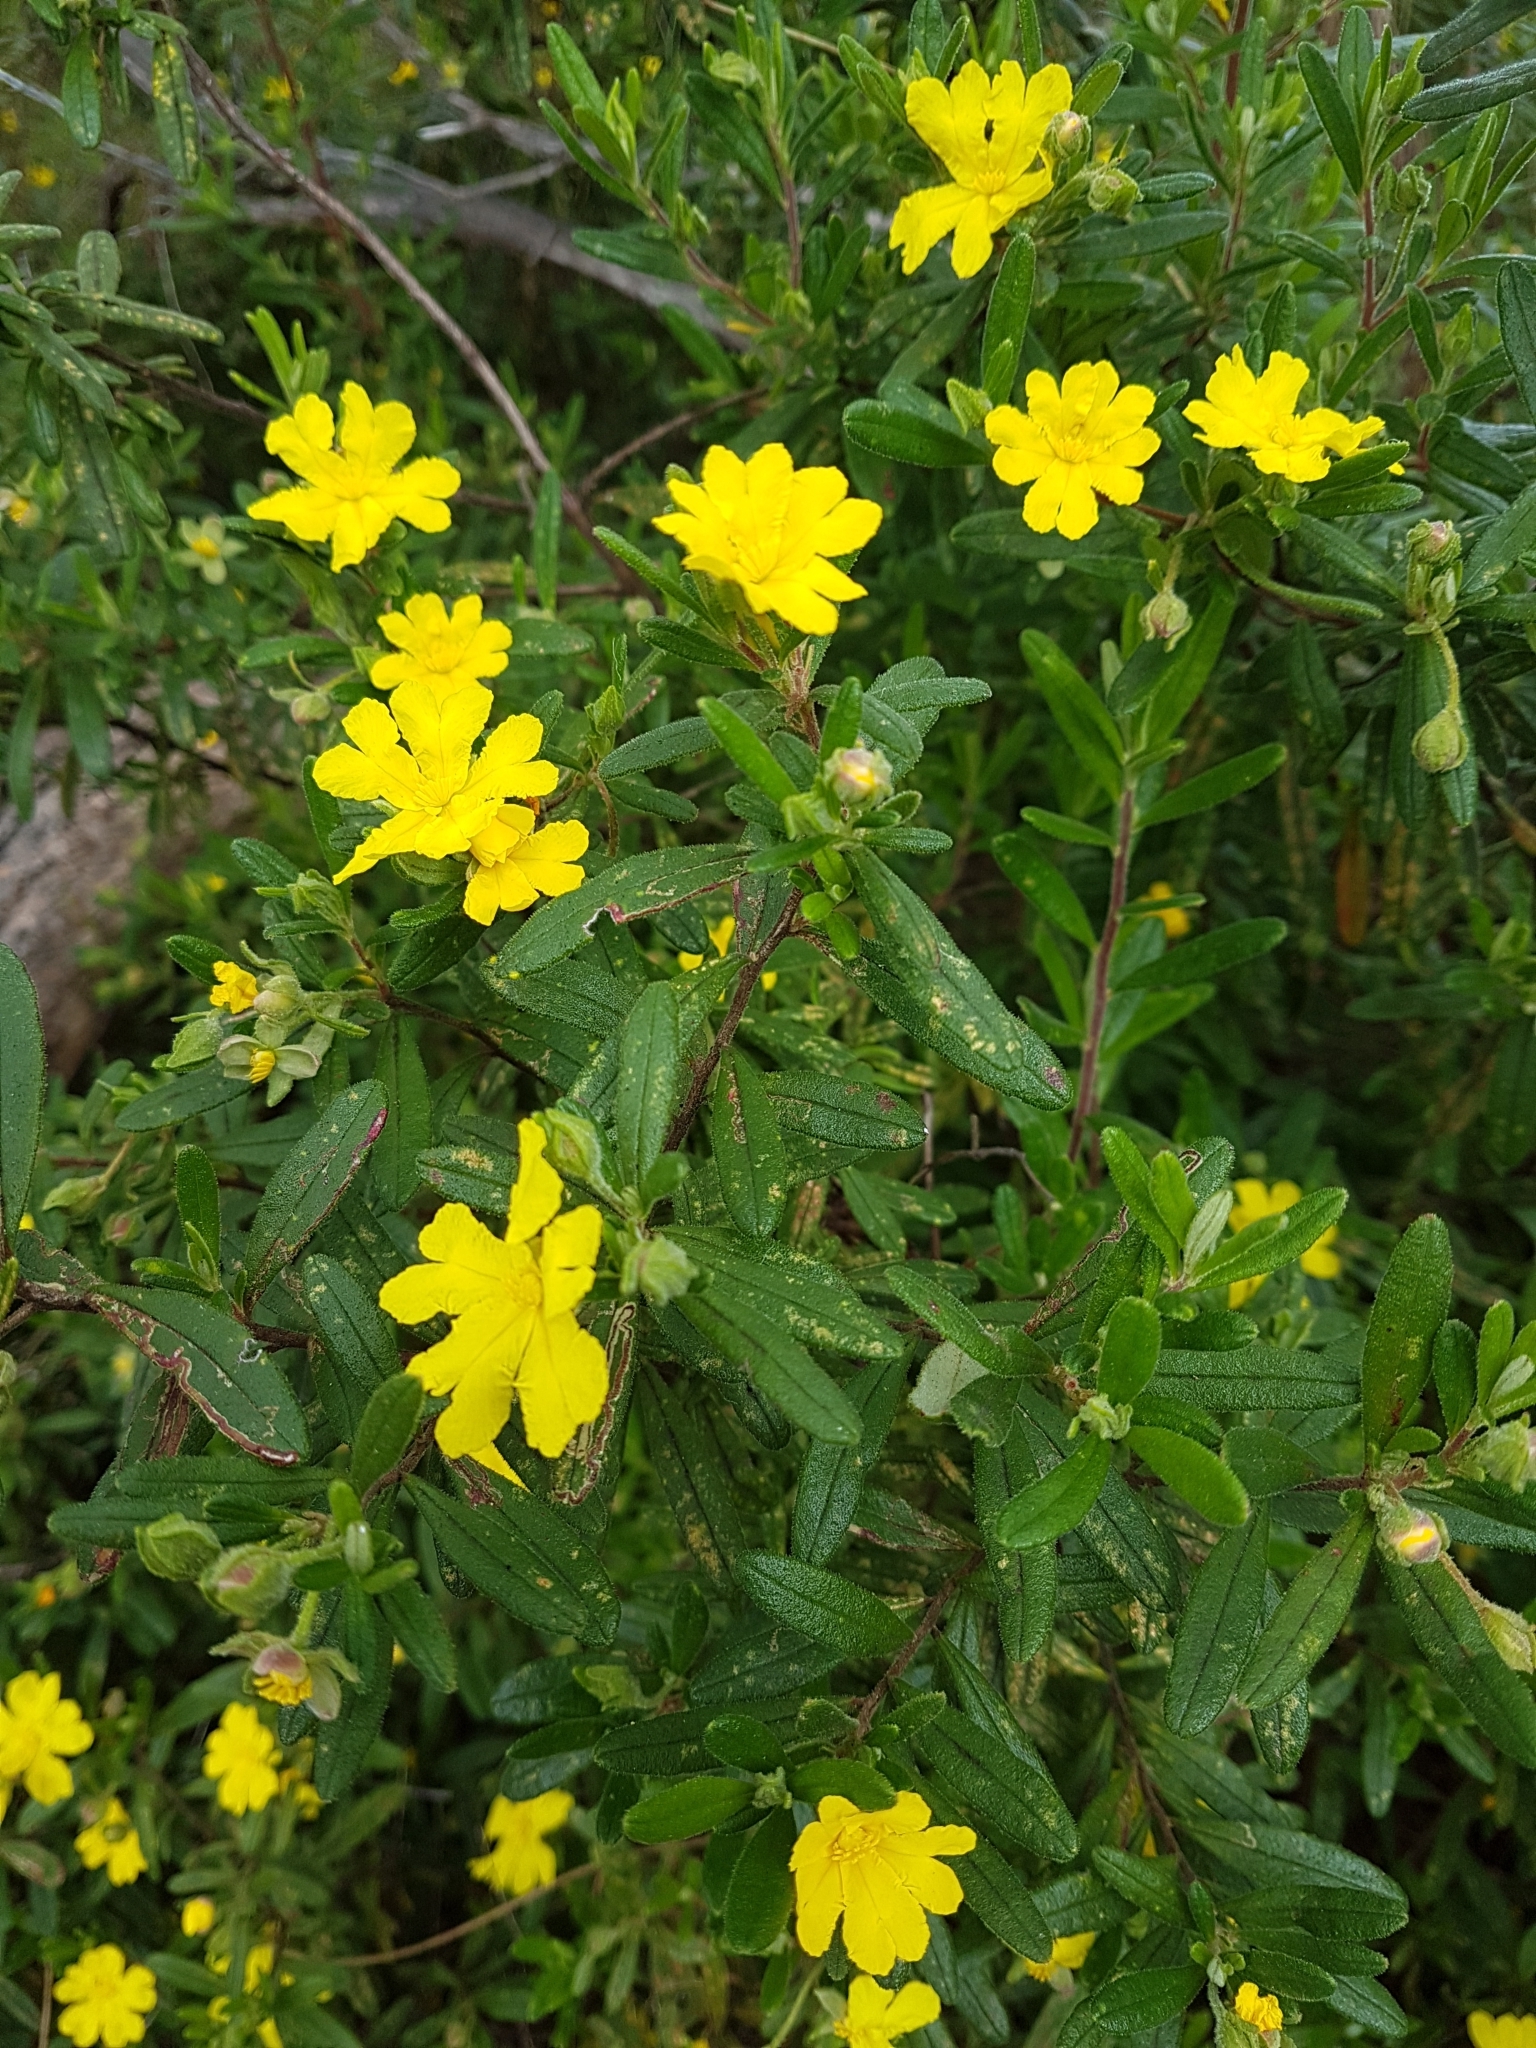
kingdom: Plantae
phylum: Tracheophyta
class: Magnoliopsida
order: Dilleniales
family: Dilleniaceae
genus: Hibbertia
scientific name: Hibbertia furfuracea
